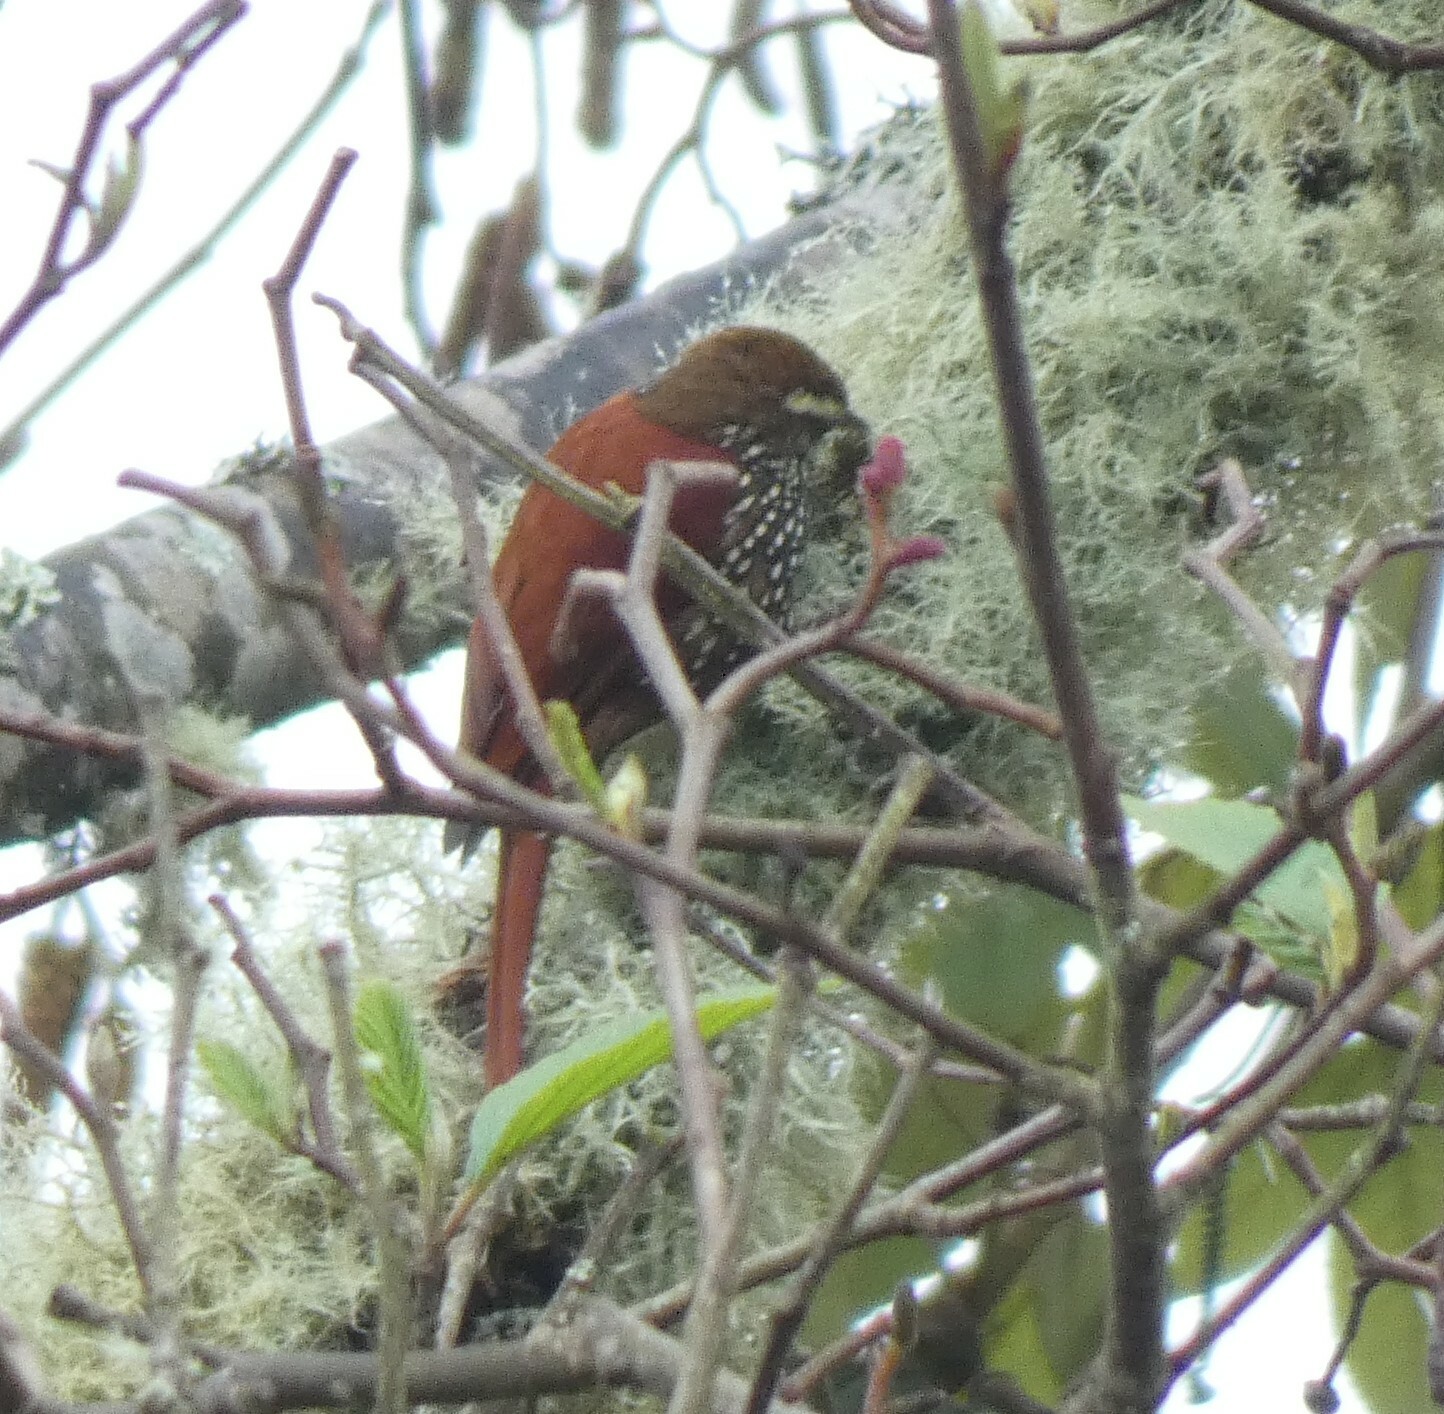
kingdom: Animalia
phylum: Chordata
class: Aves
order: Passeriformes
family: Furnariidae
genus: Margarornis
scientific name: Margarornis squamiger
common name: Pearled treerunner
